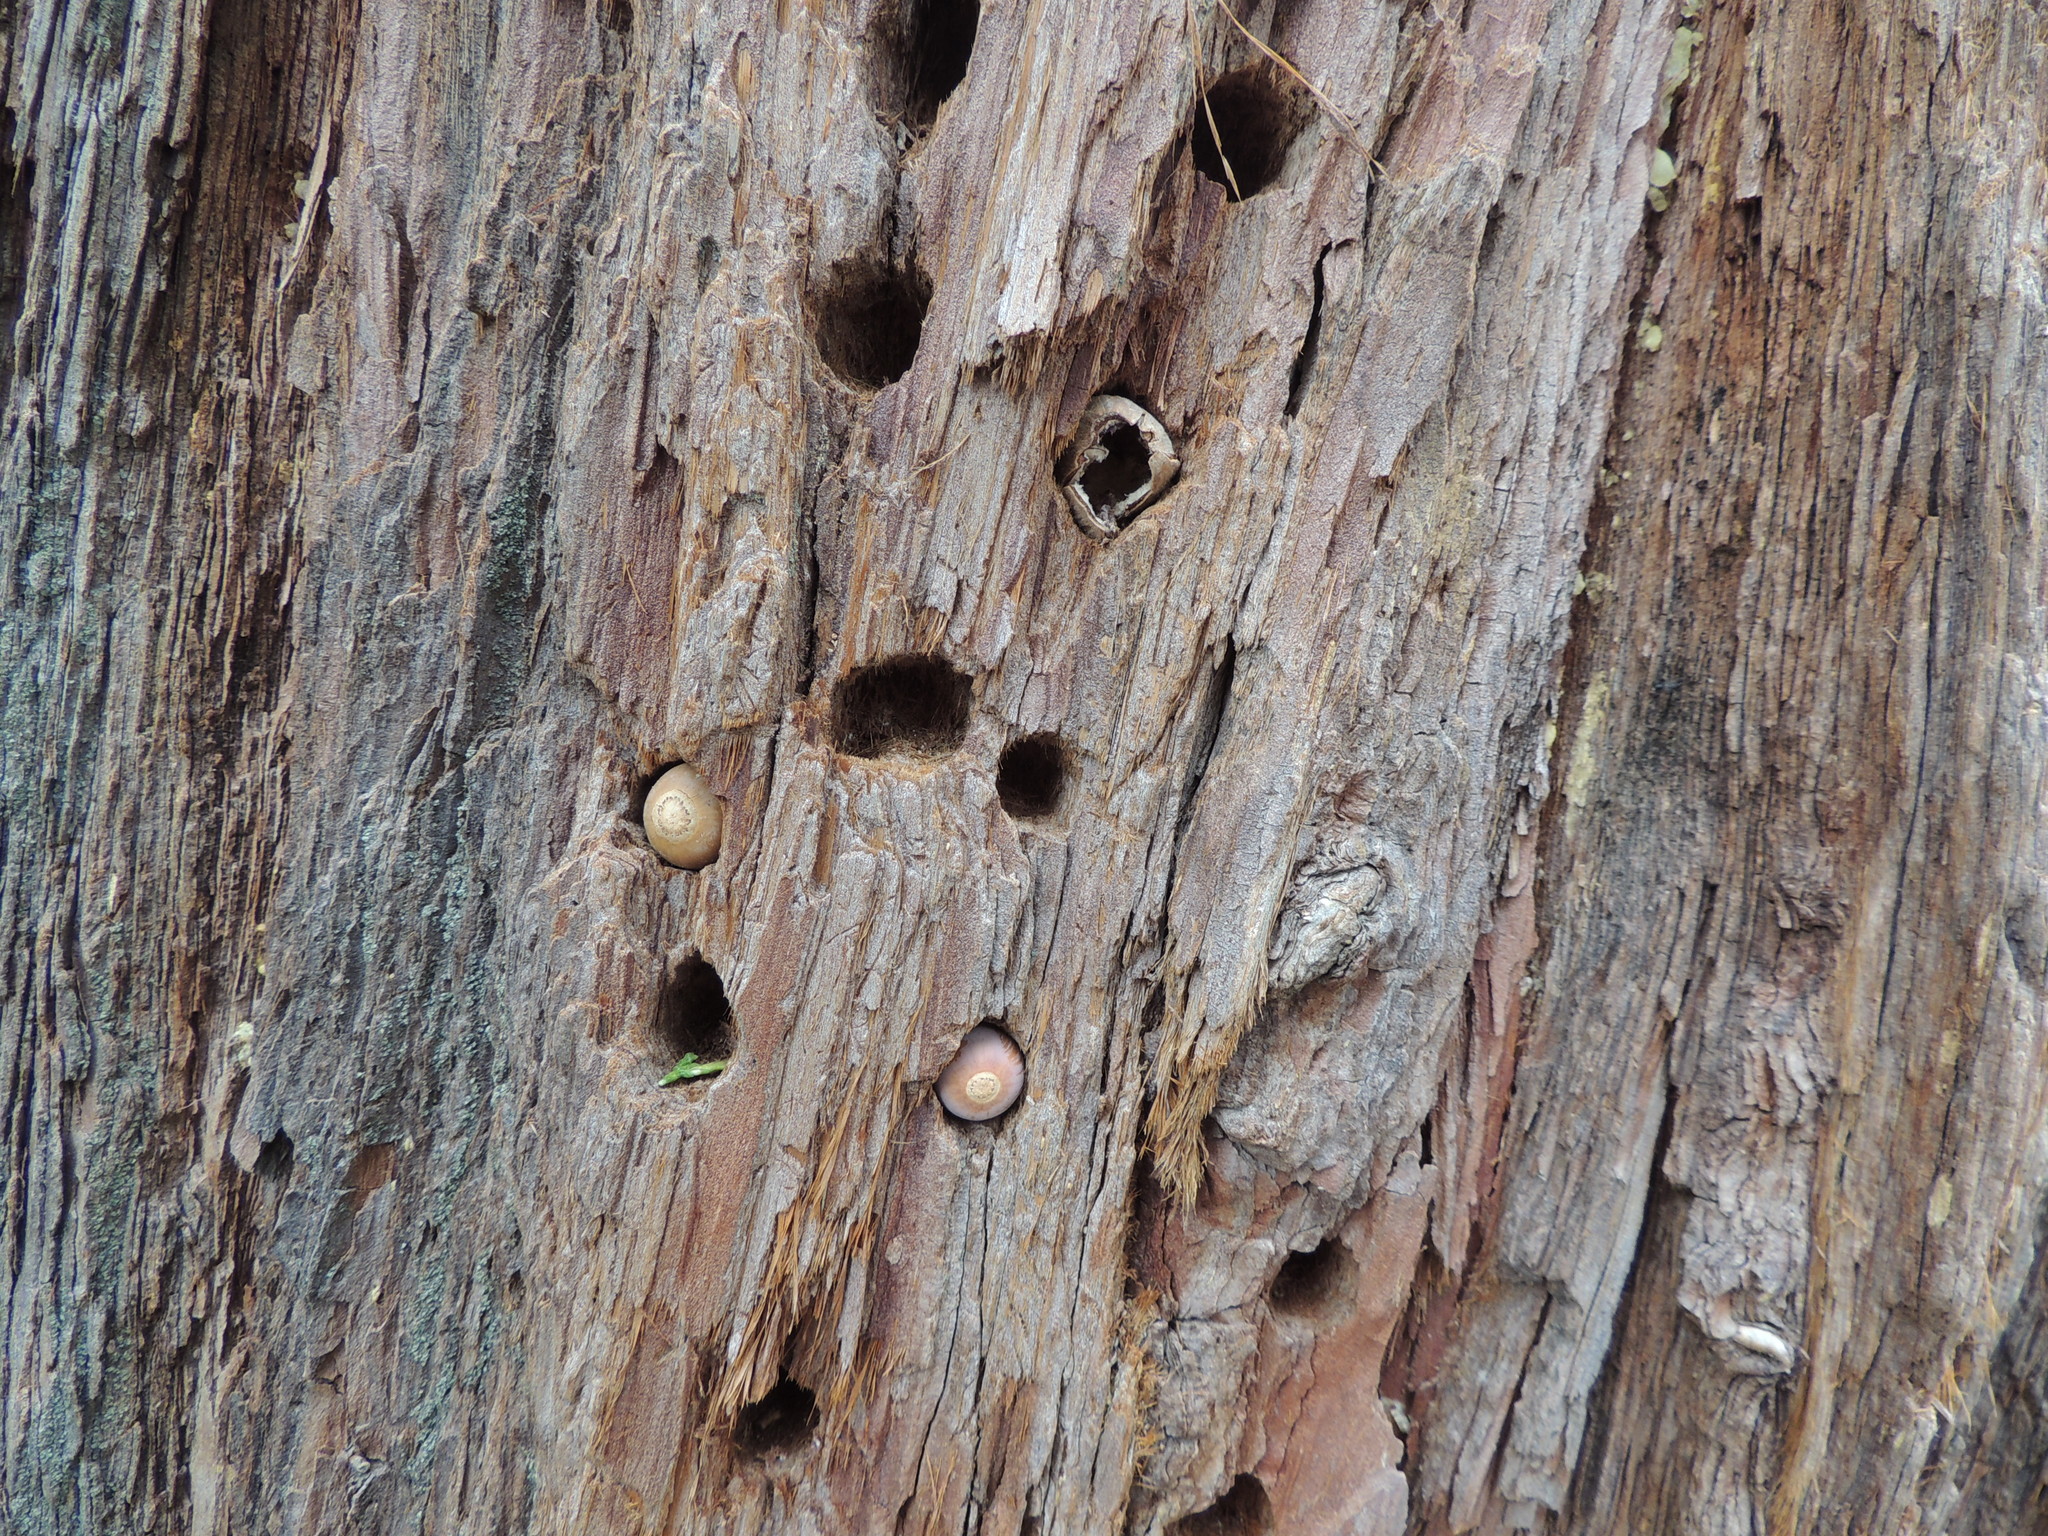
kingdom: Animalia
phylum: Chordata
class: Aves
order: Piciformes
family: Picidae
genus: Melanerpes
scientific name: Melanerpes formicivorus
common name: Acorn woodpecker
